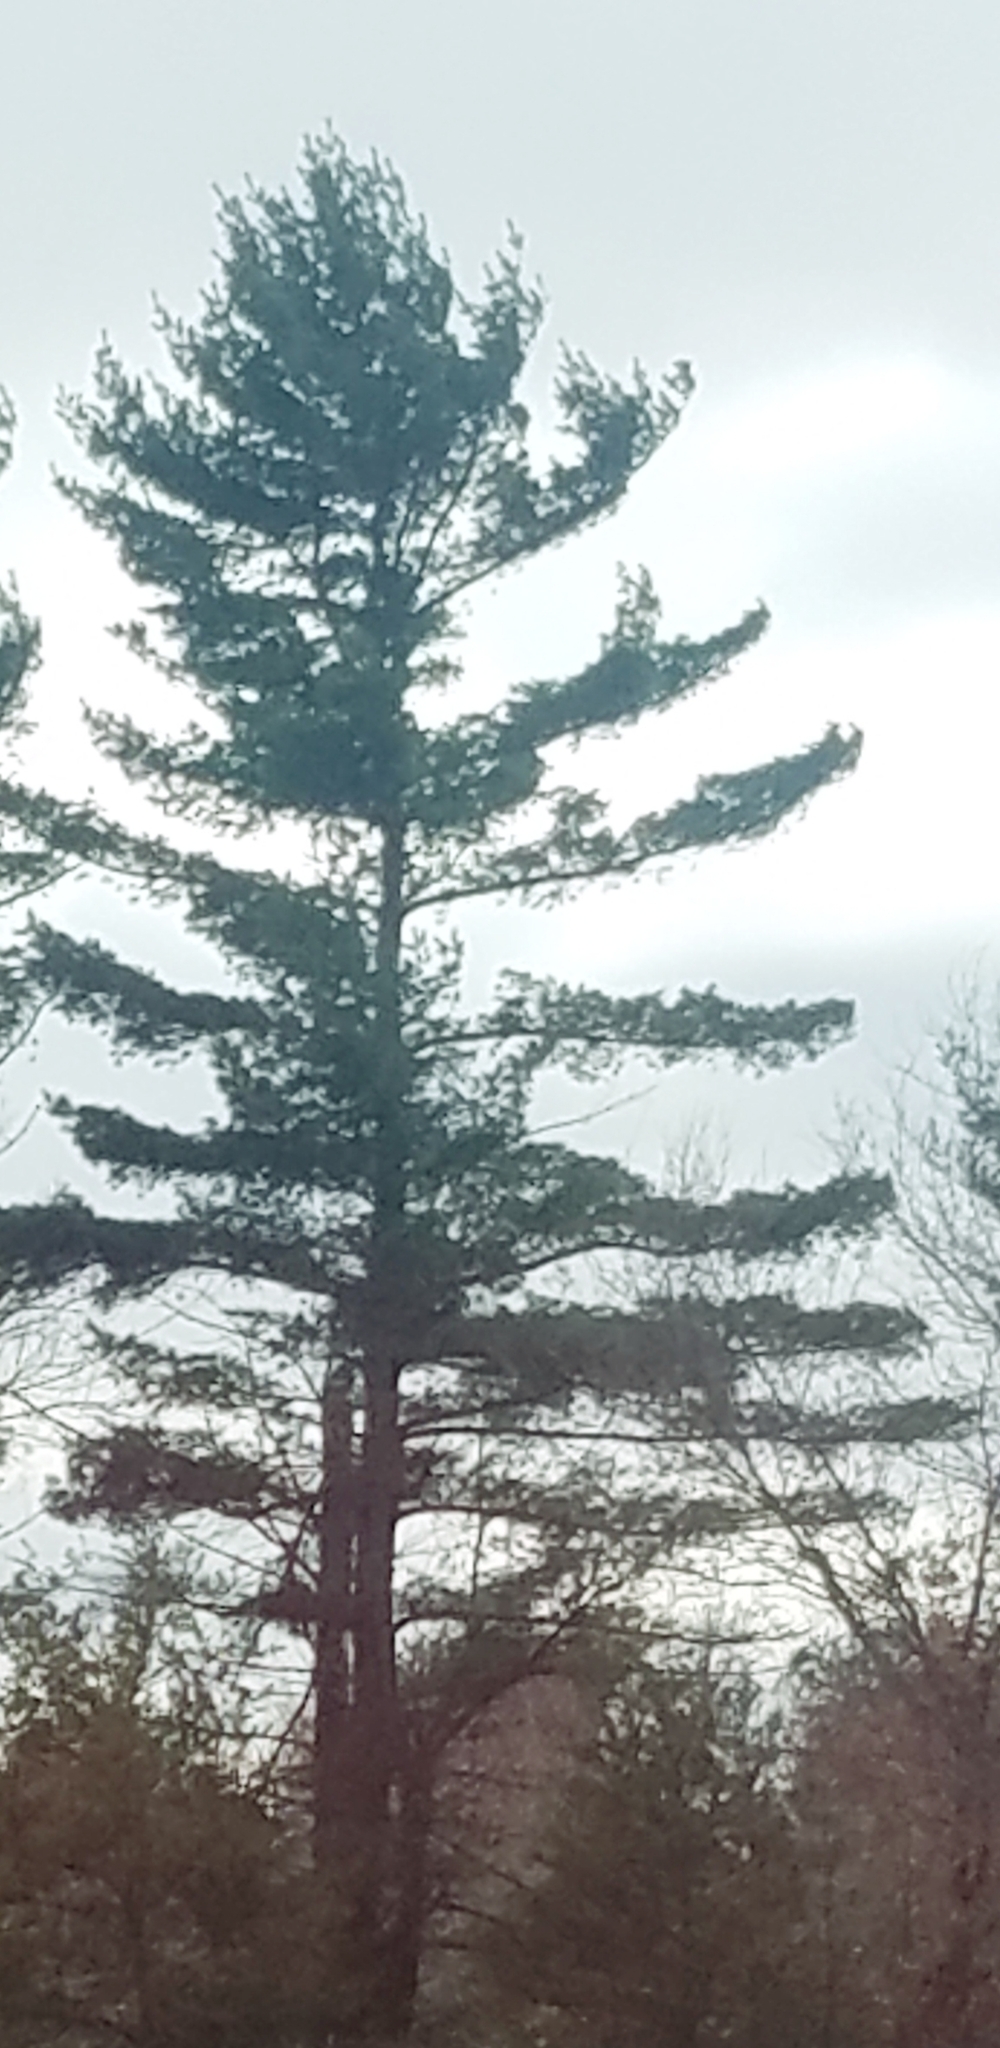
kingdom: Plantae
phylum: Tracheophyta
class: Pinopsida
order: Pinales
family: Pinaceae
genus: Pinus
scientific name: Pinus strobus
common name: Weymouth pine
